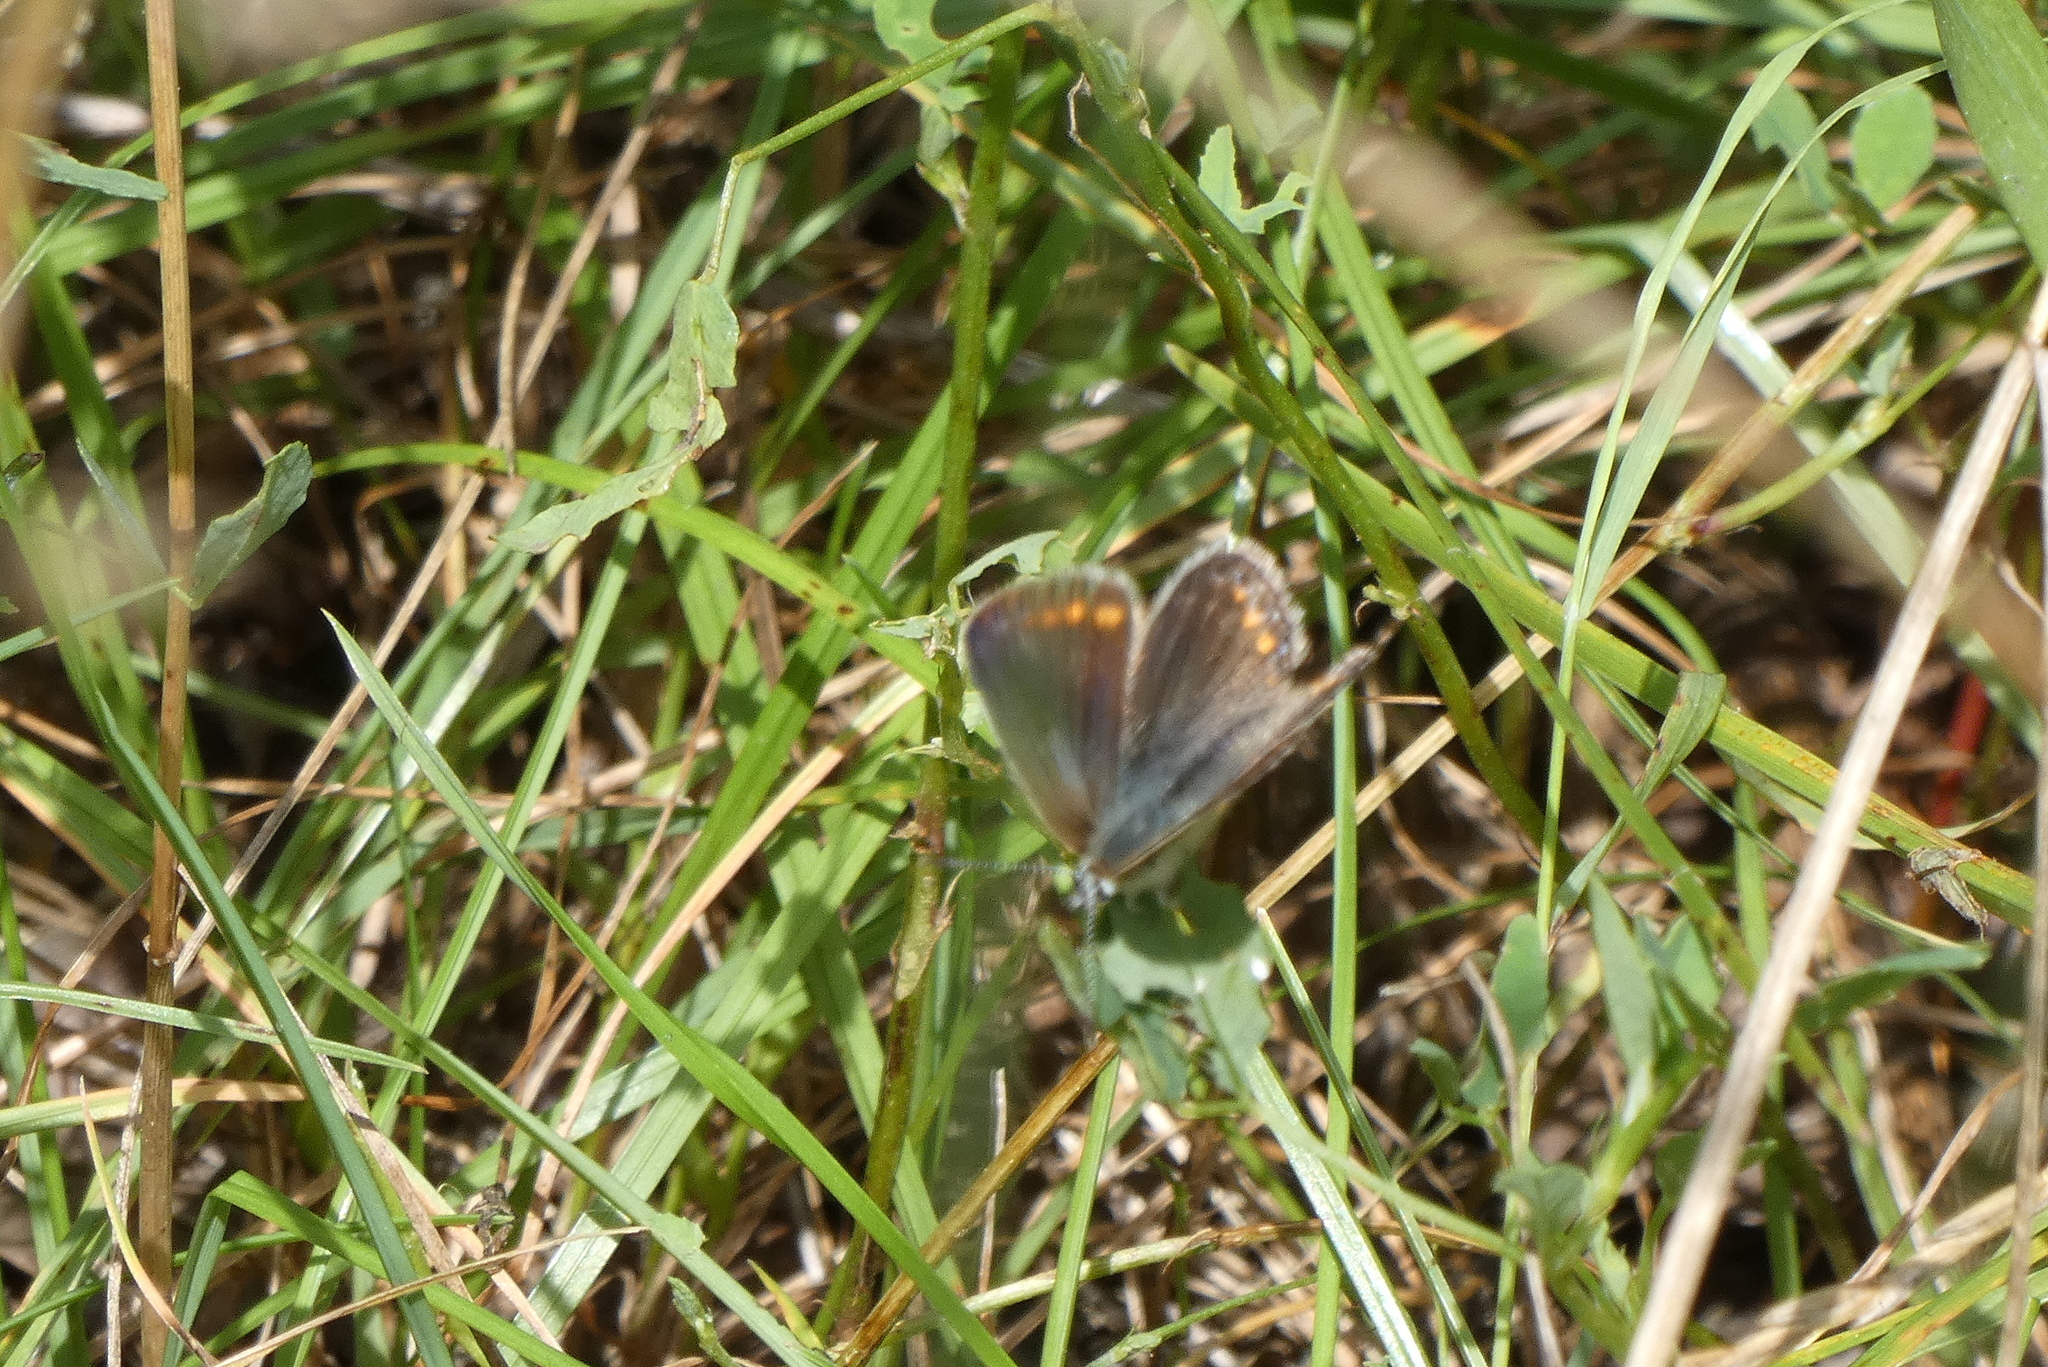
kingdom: Animalia
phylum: Arthropoda
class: Insecta
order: Lepidoptera
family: Lycaenidae
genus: Polyommatus
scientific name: Polyommatus icarus
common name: Common blue
